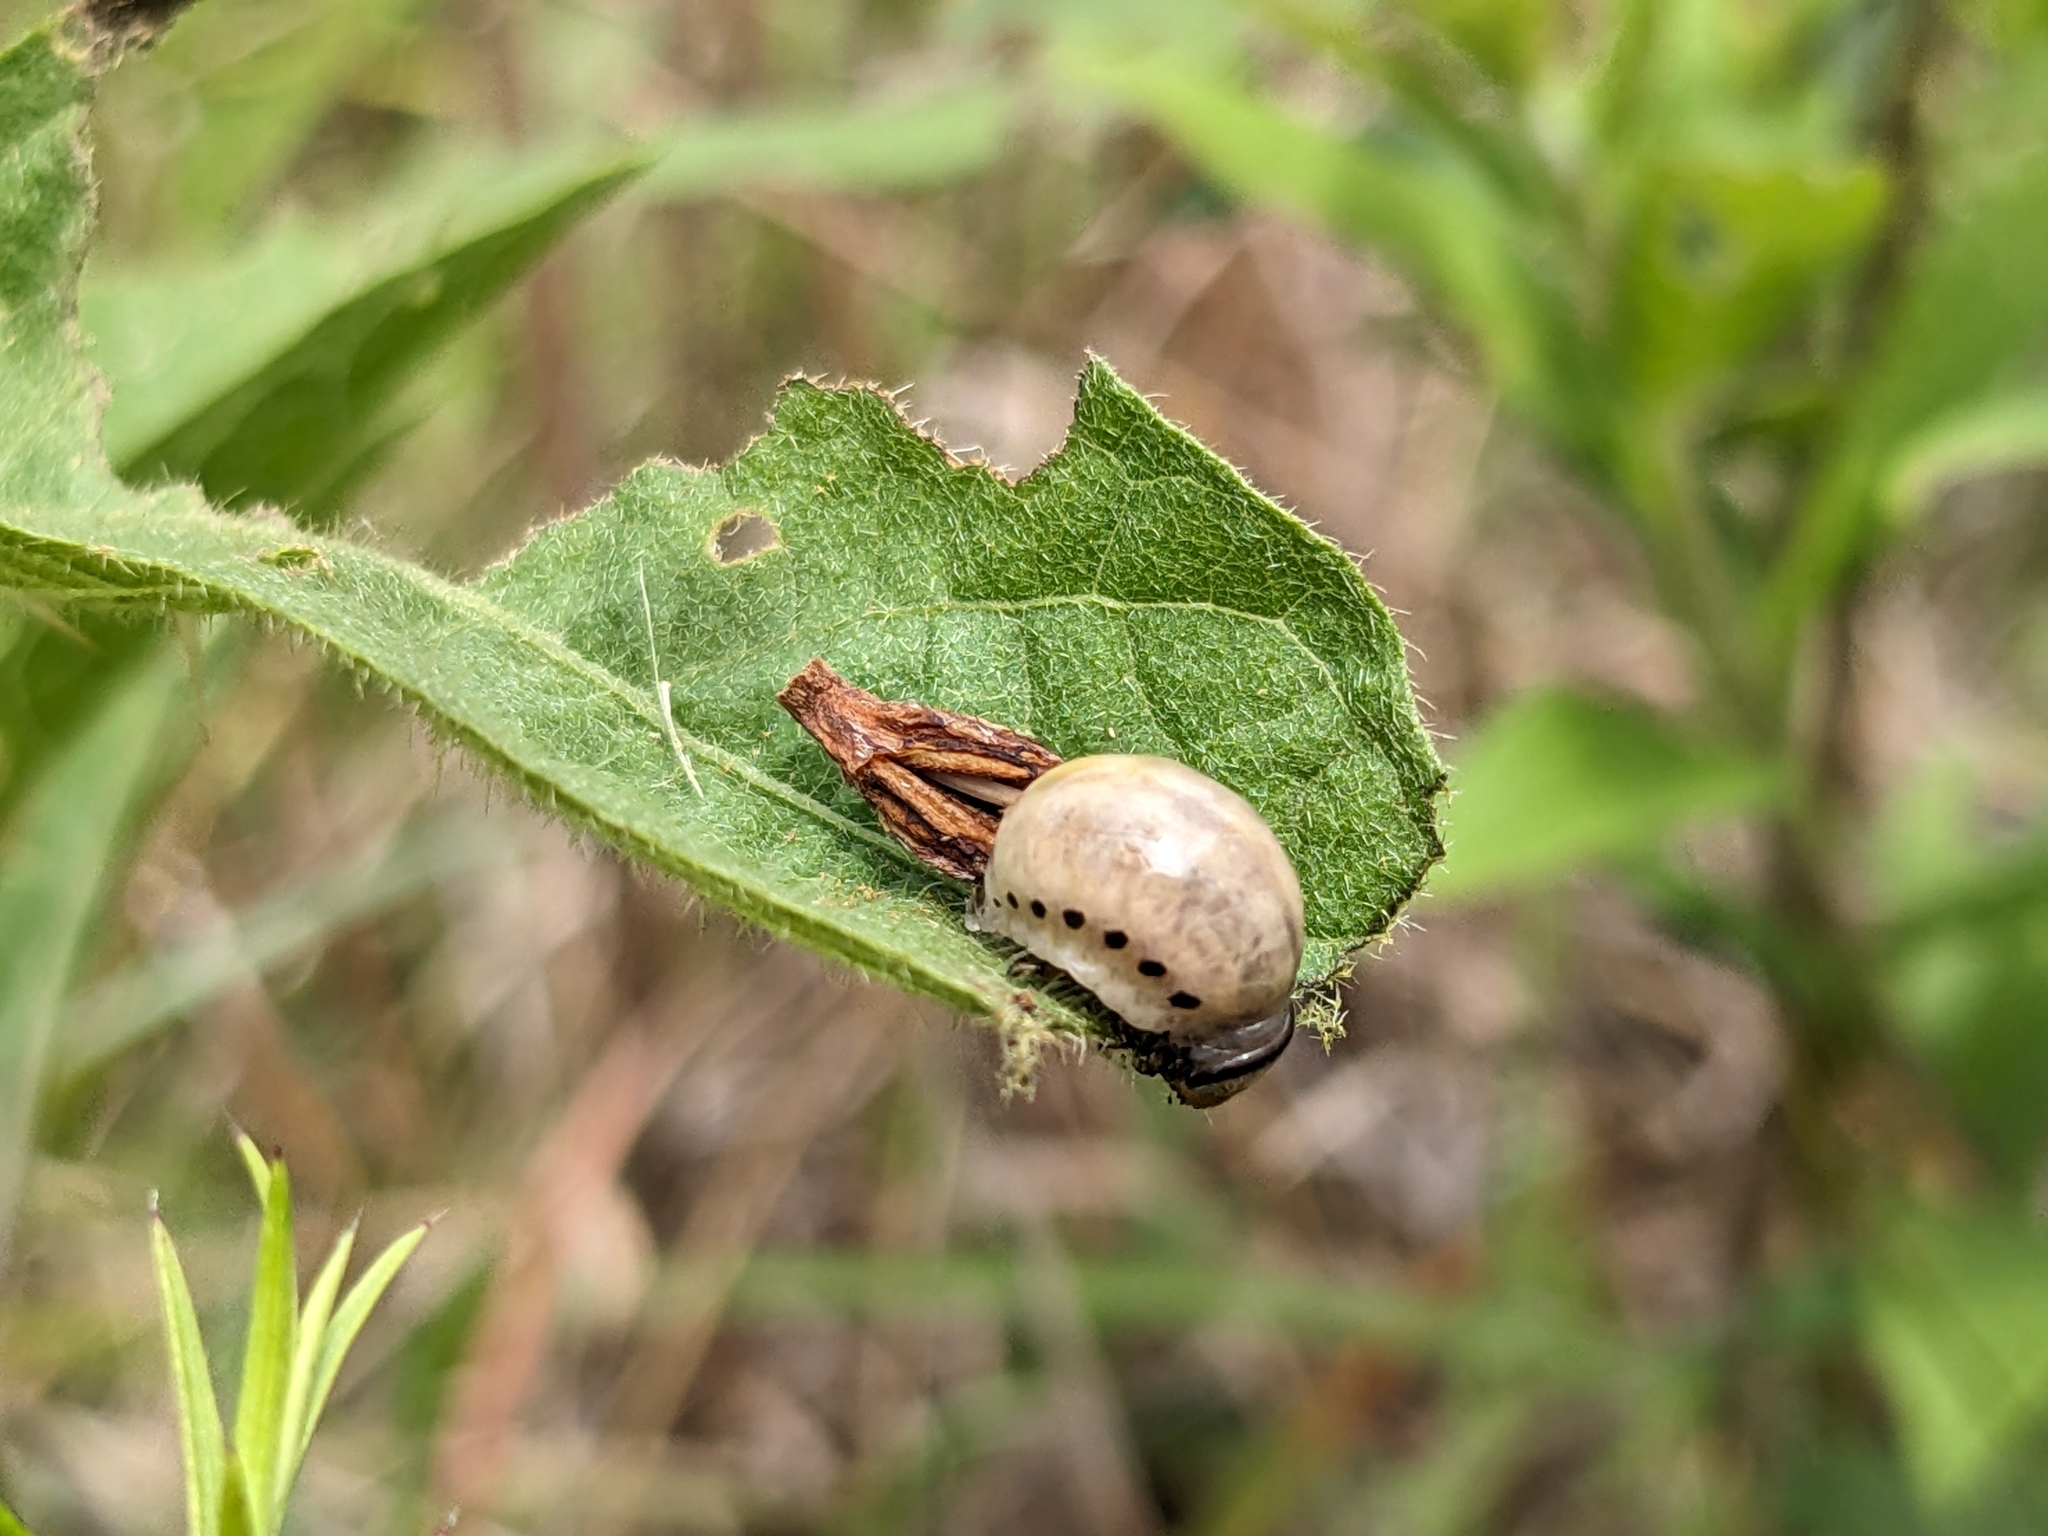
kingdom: Animalia
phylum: Arthropoda
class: Insecta
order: Coleoptera
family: Chrysomelidae
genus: Leptinotarsa
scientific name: Leptinotarsa juncta
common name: False potato beetle
